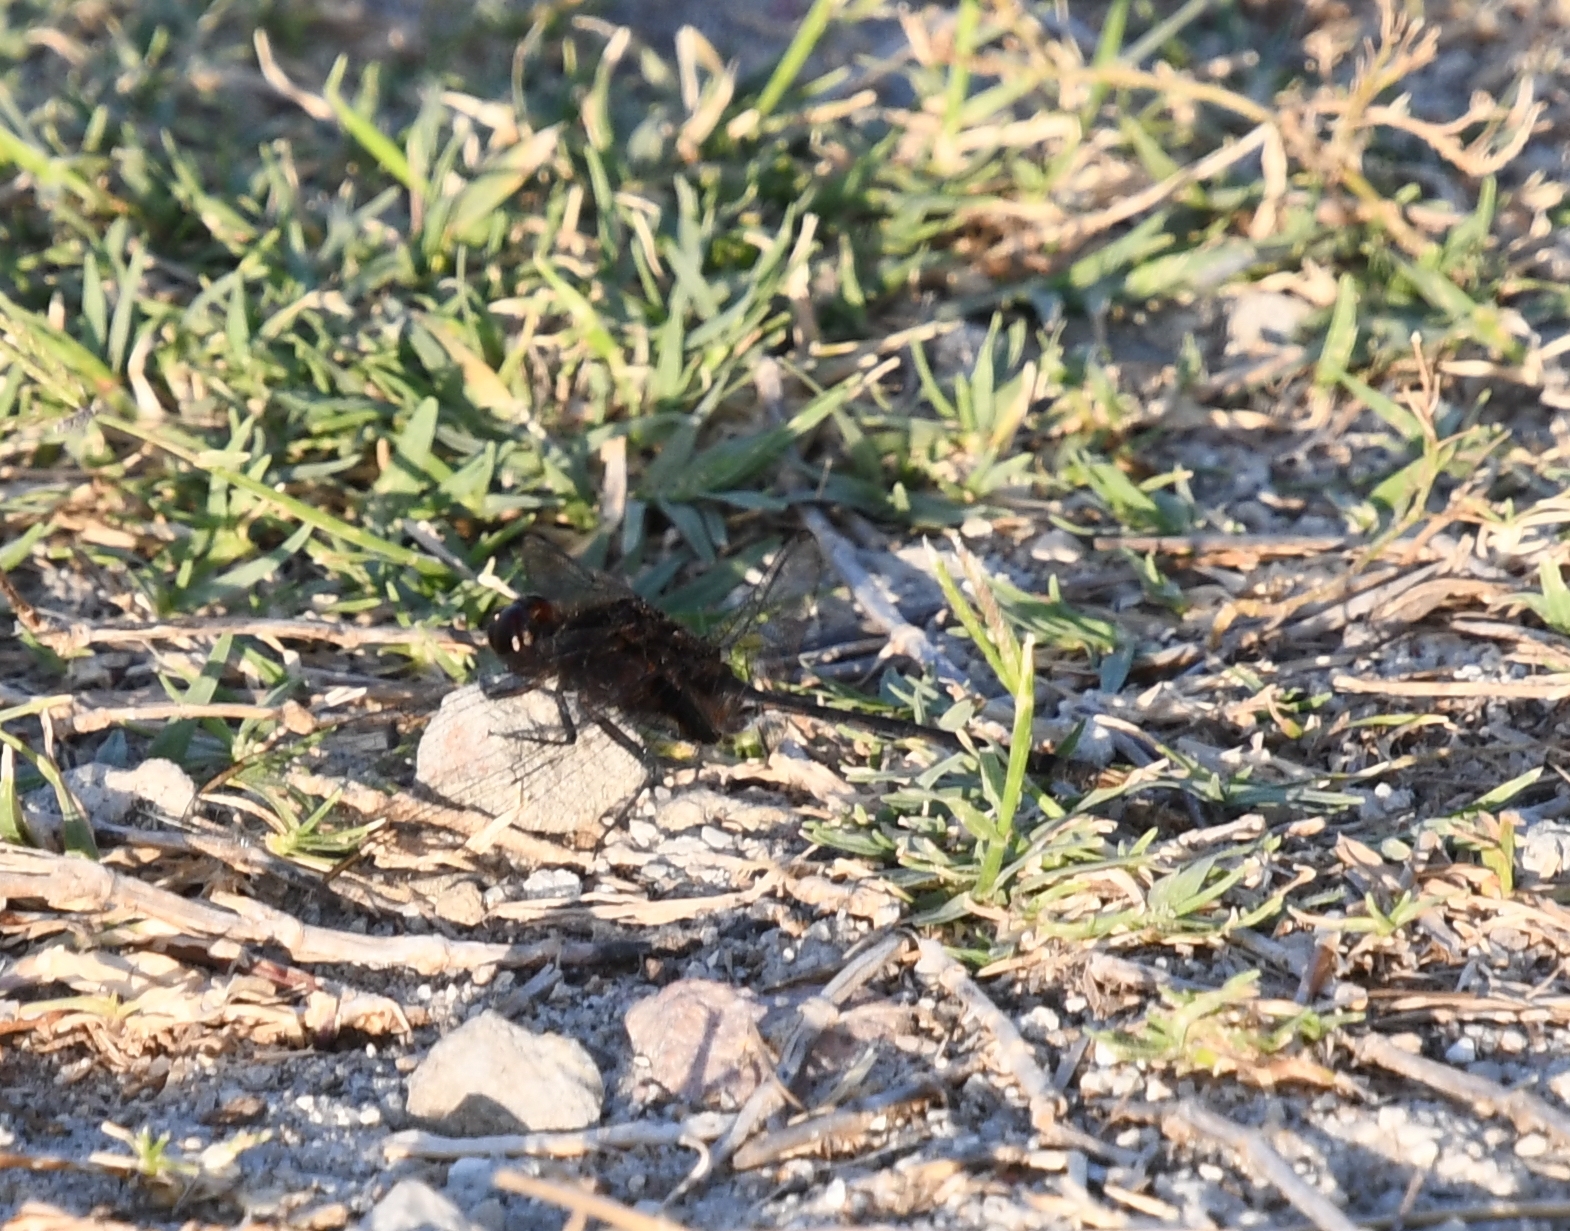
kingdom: Animalia
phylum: Arthropoda
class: Insecta
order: Odonata
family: Libellulidae
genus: Erythemis
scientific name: Erythemis plebeja
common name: Pin-tailed pondhawk
